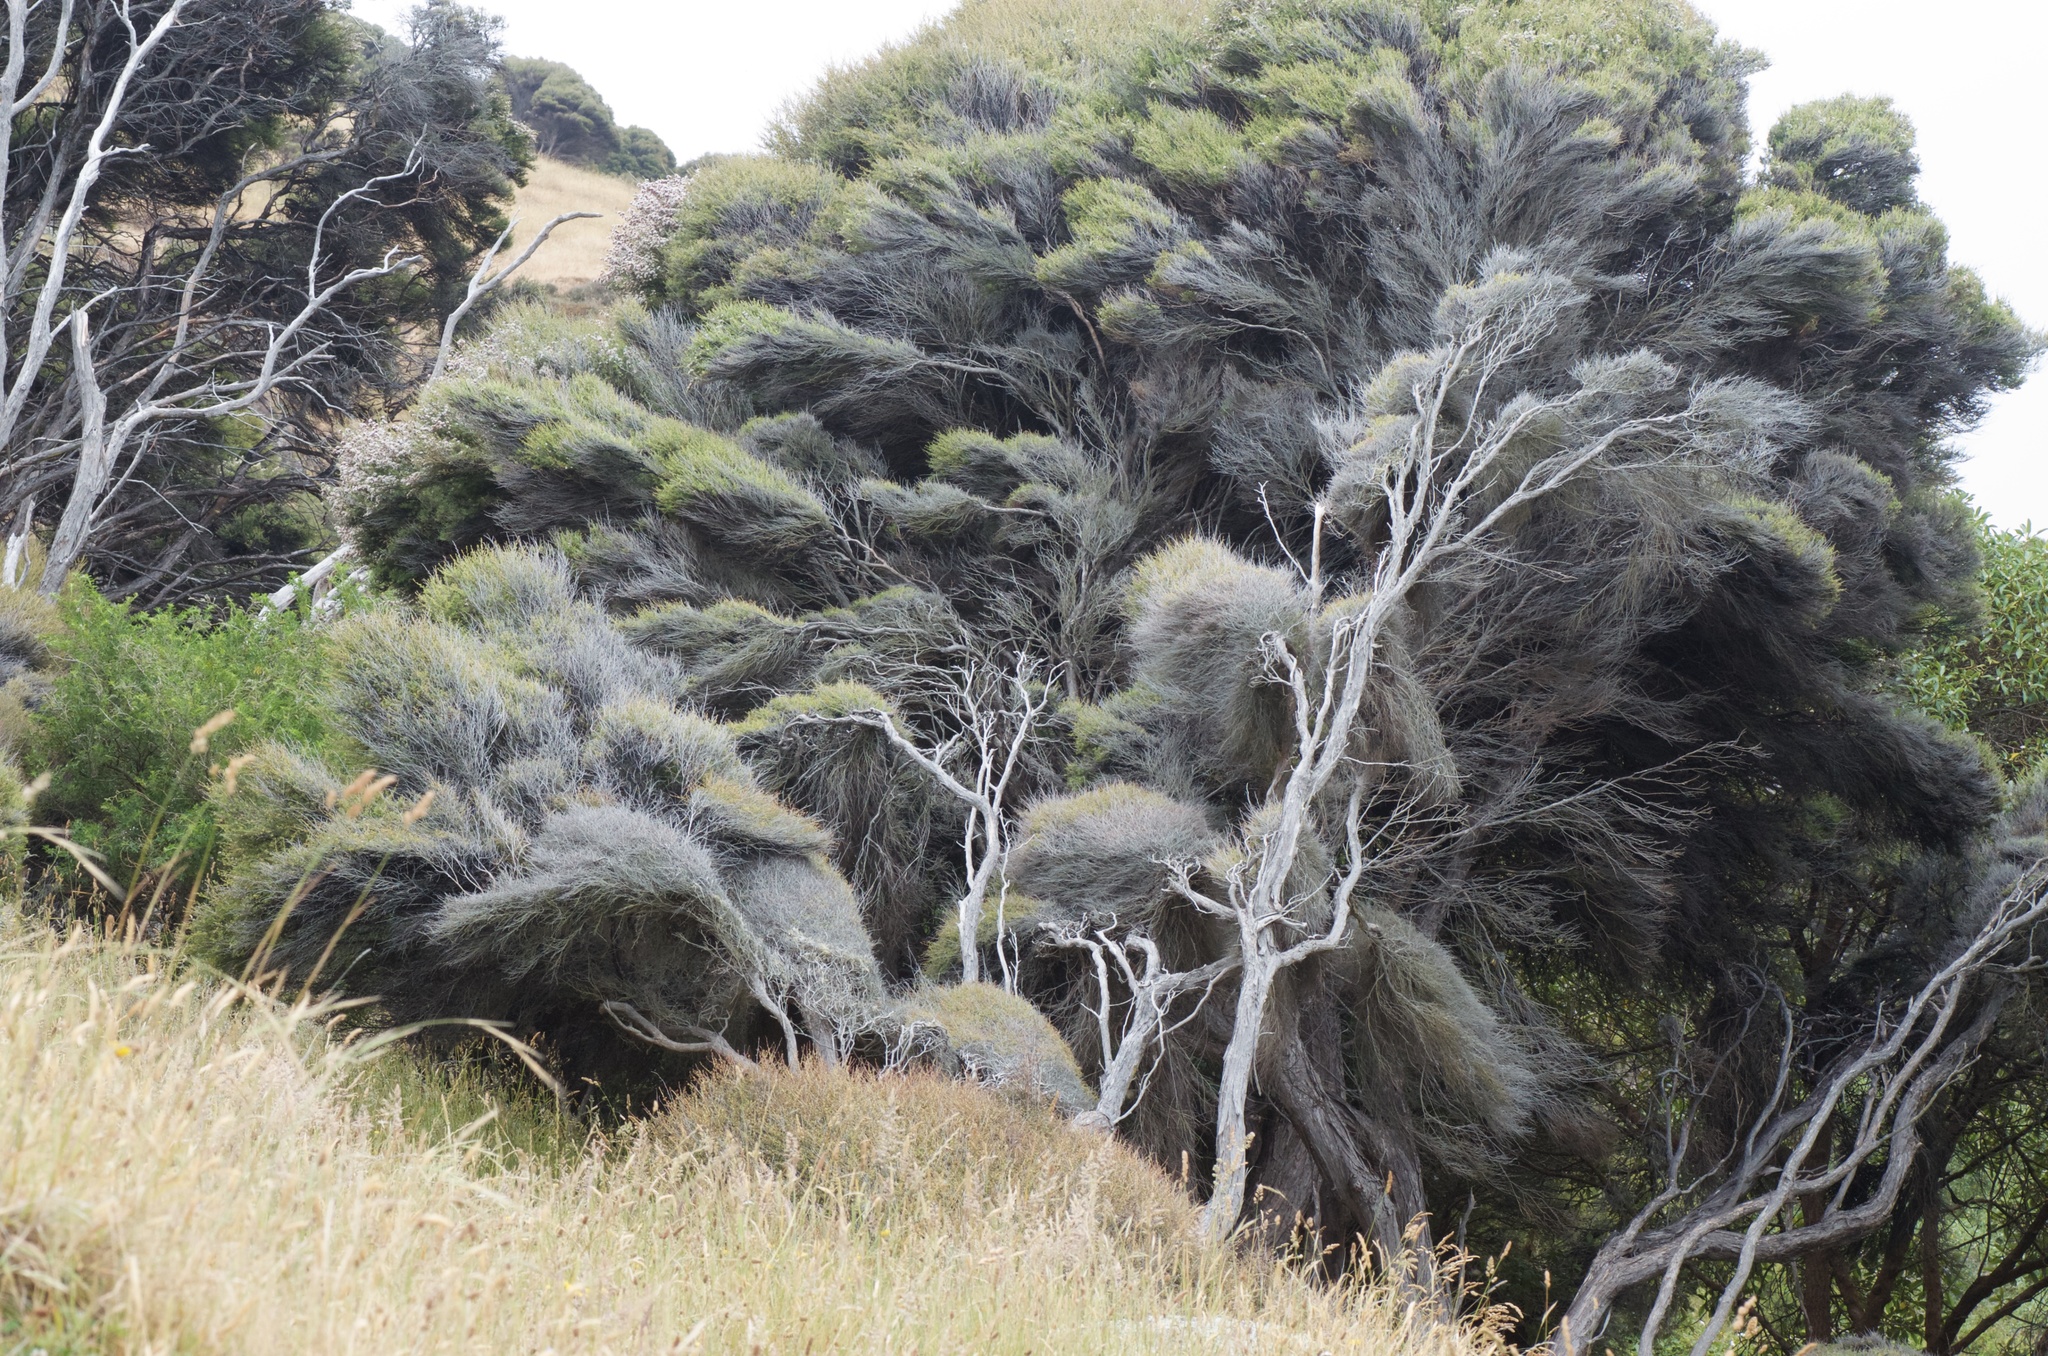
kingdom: Plantae
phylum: Tracheophyta
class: Magnoliopsida
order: Myrtales
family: Myrtaceae
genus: Kunzea
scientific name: Kunzea robusta
